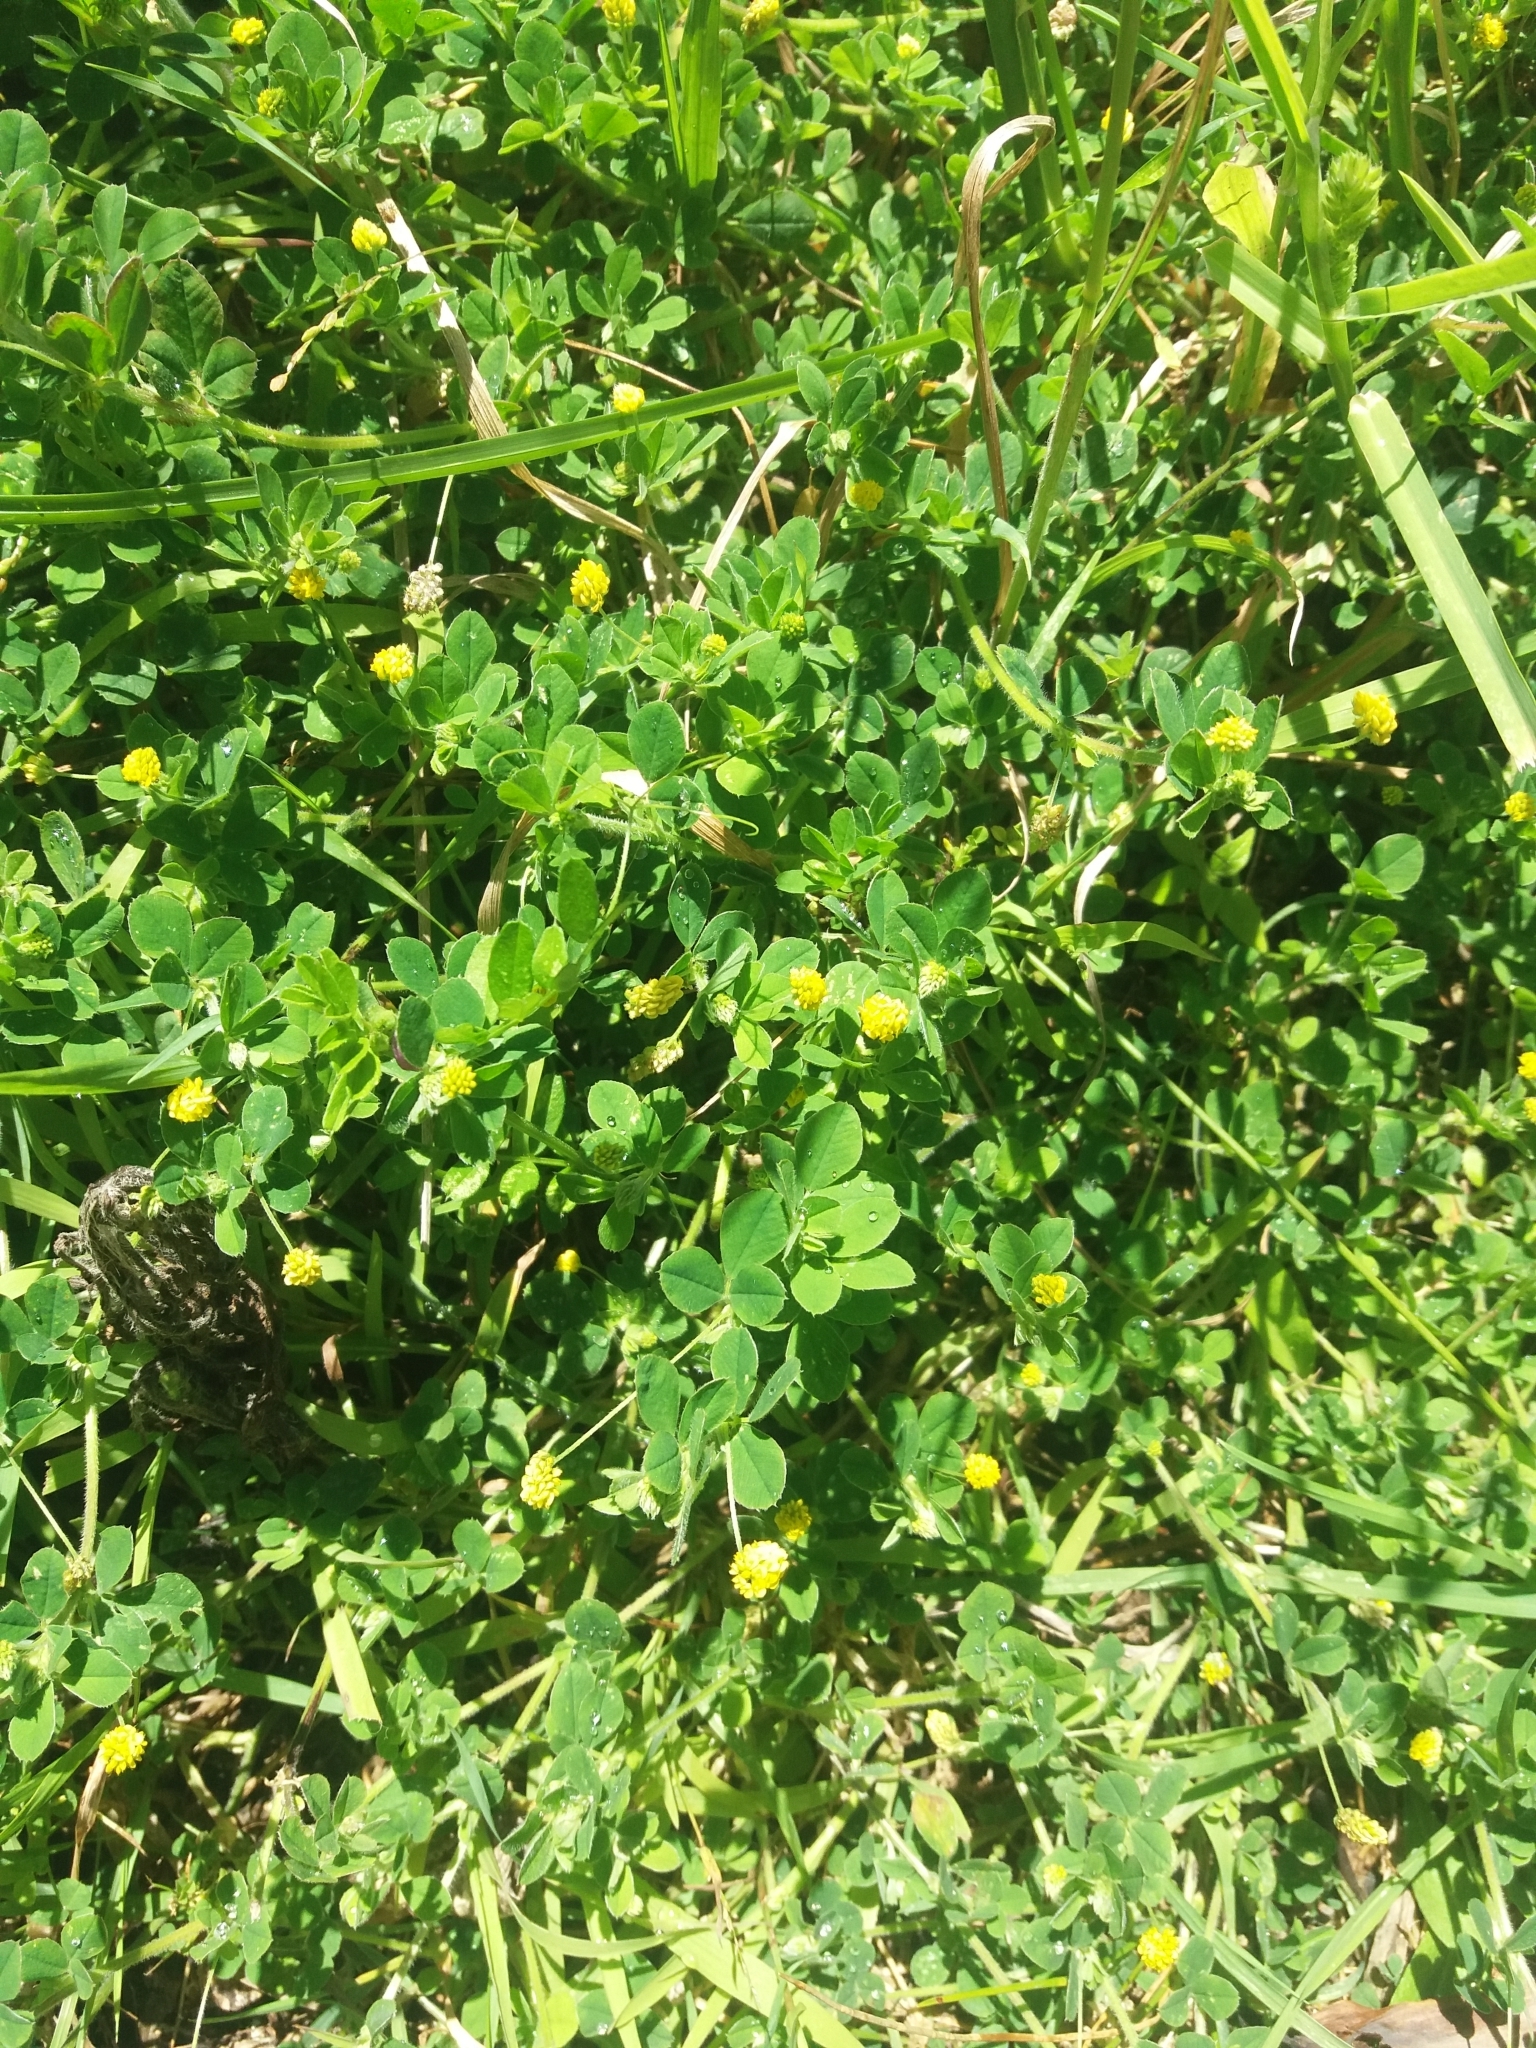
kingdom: Plantae
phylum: Tracheophyta
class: Magnoliopsida
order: Fabales
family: Fabaceae
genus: Medicago
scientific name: Medicago lupulina
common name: Black medick
